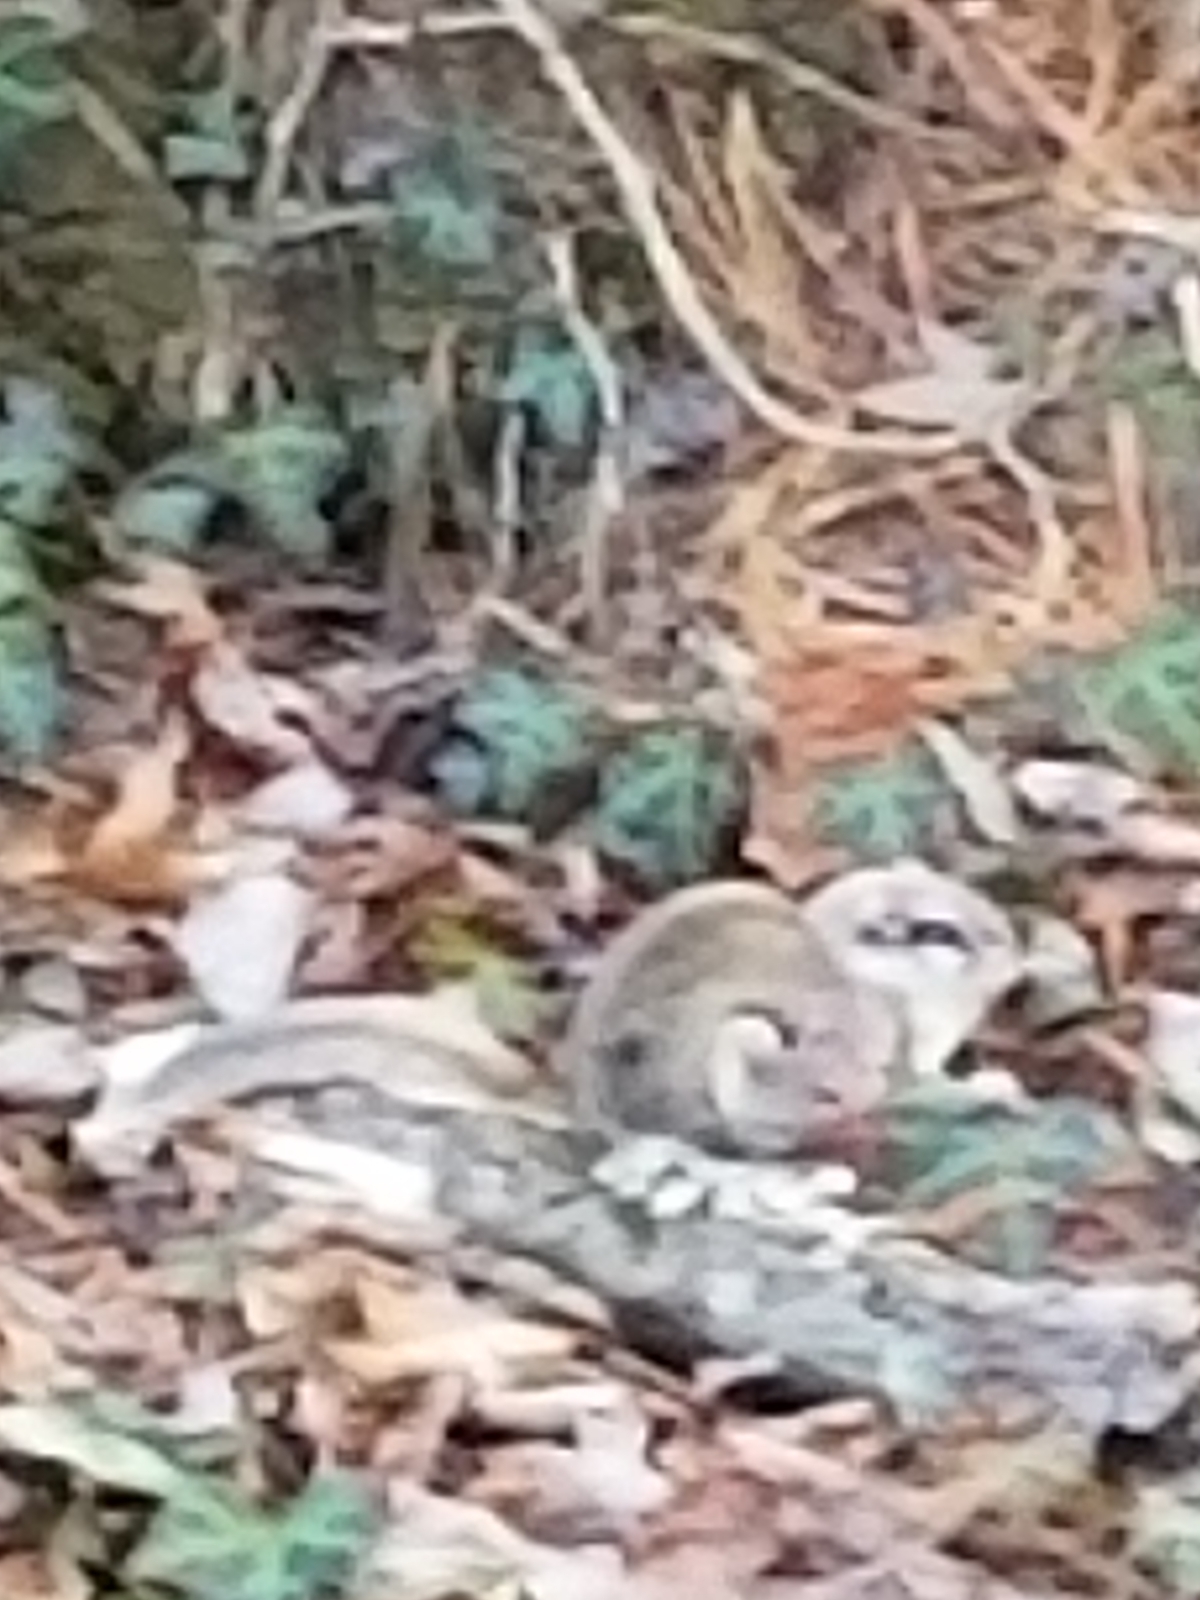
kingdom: Animalia
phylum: Chordata
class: Mammalia
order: Rodentia
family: Sciuridae
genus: Glaucomys
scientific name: Glaucomys volans
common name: Southern flying squirrel
